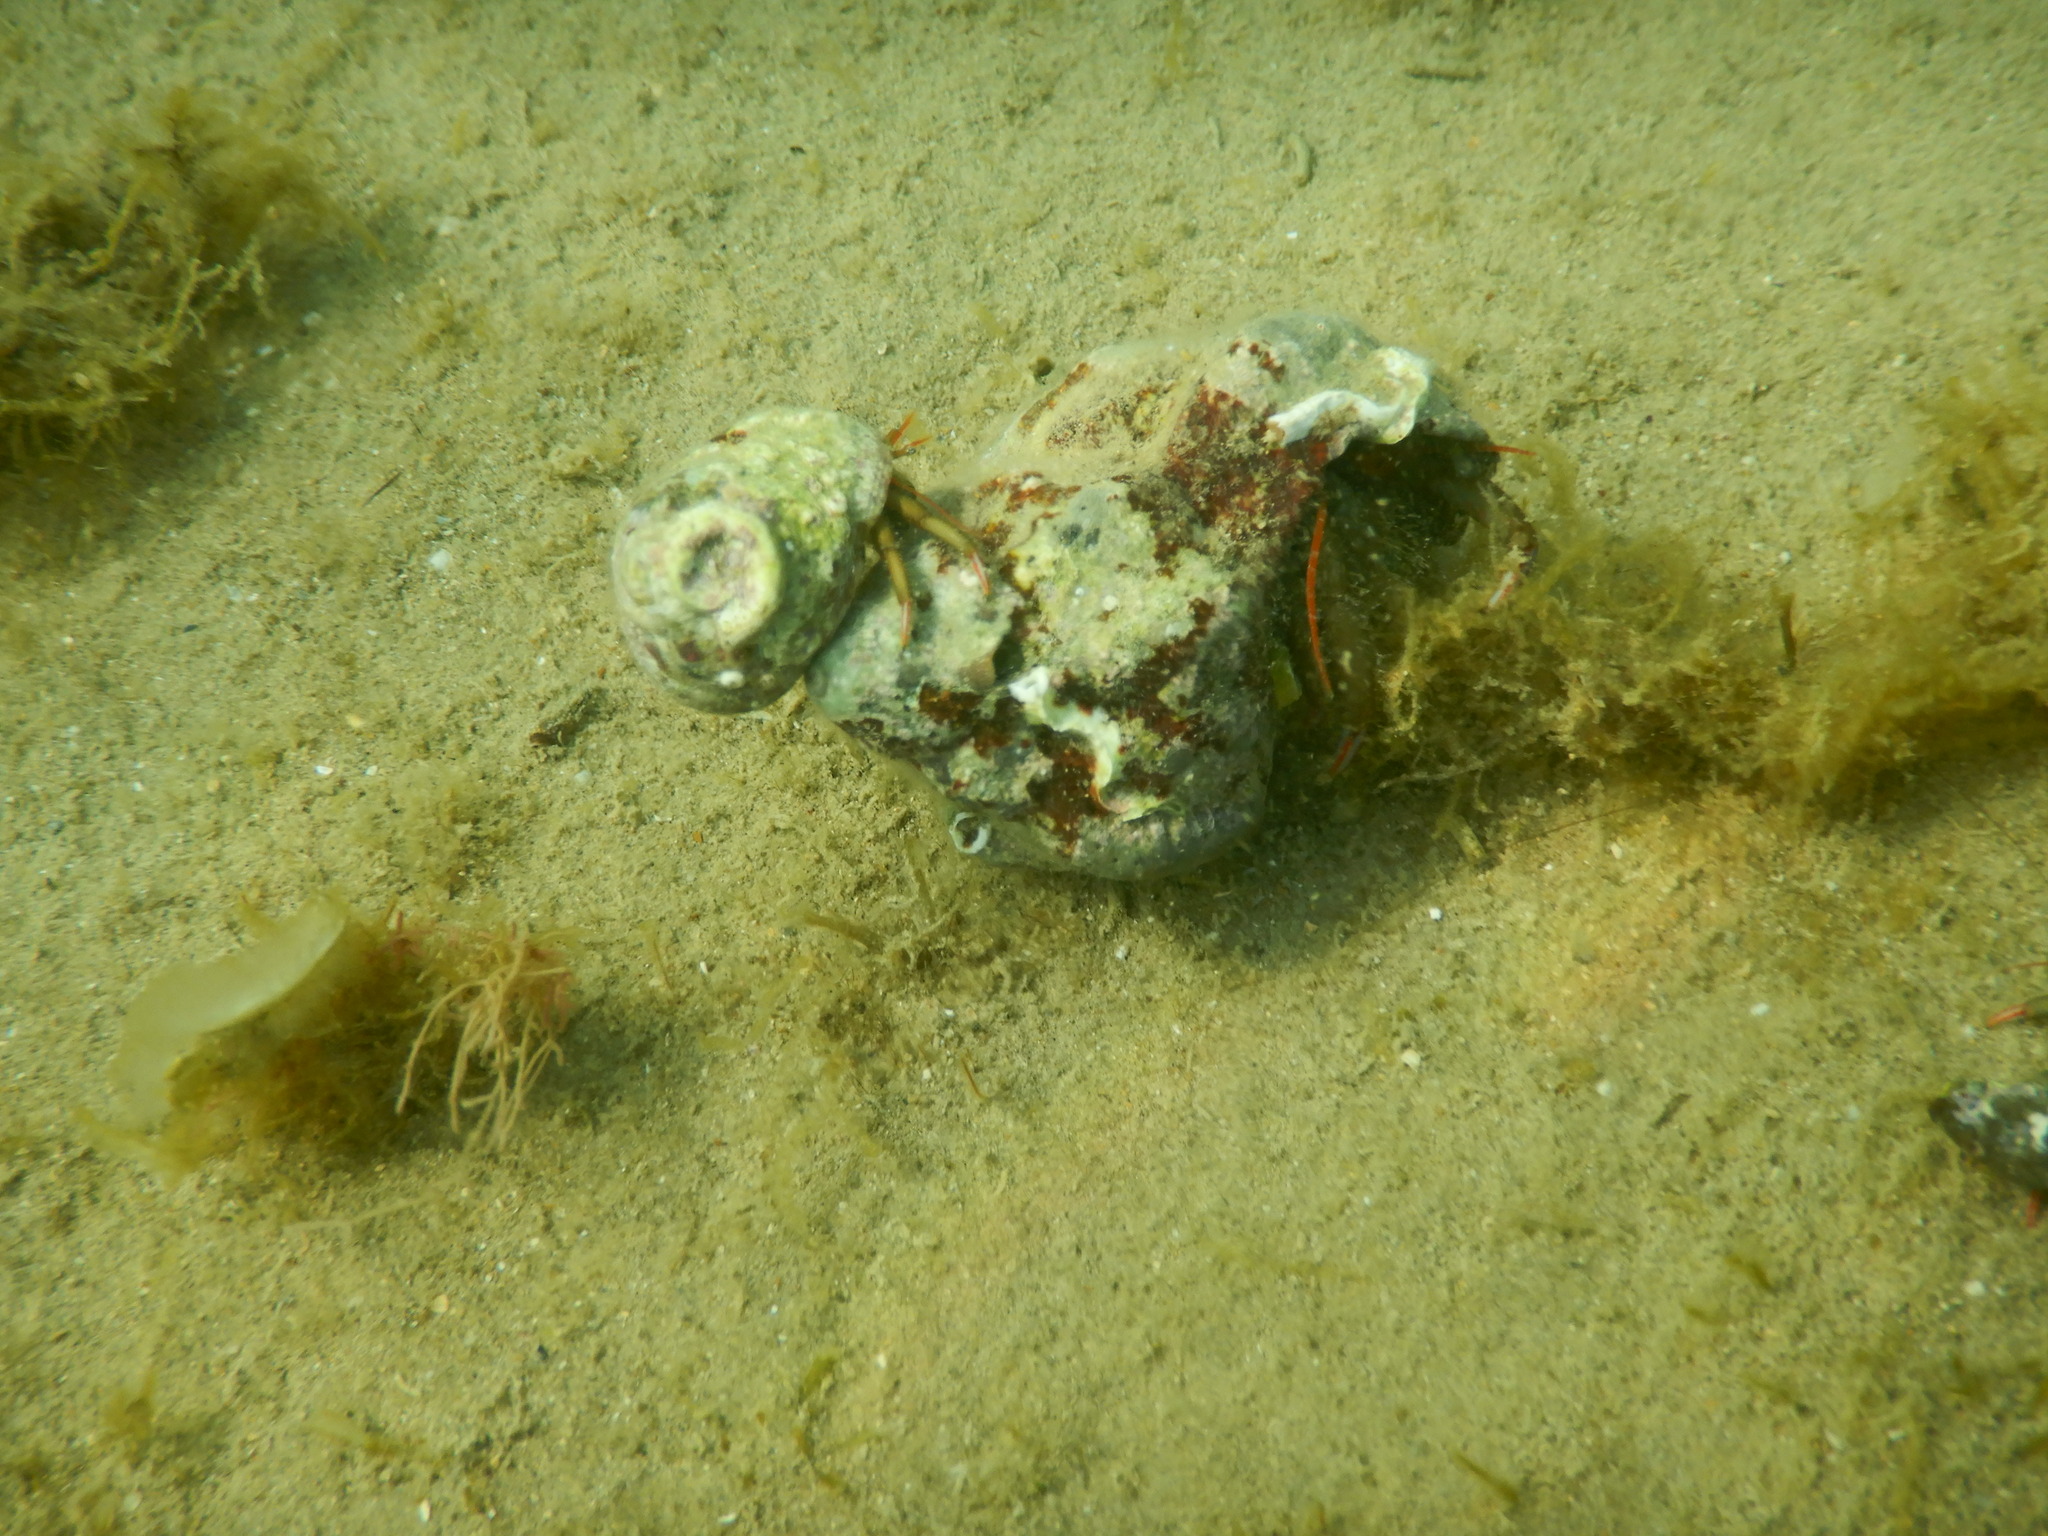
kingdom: Animalia
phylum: Arthropoda
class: Malacostraca
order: Decapoda
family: Diogenidae
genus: Clibanarius
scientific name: Clibanarius erythropus
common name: Hermit crab
